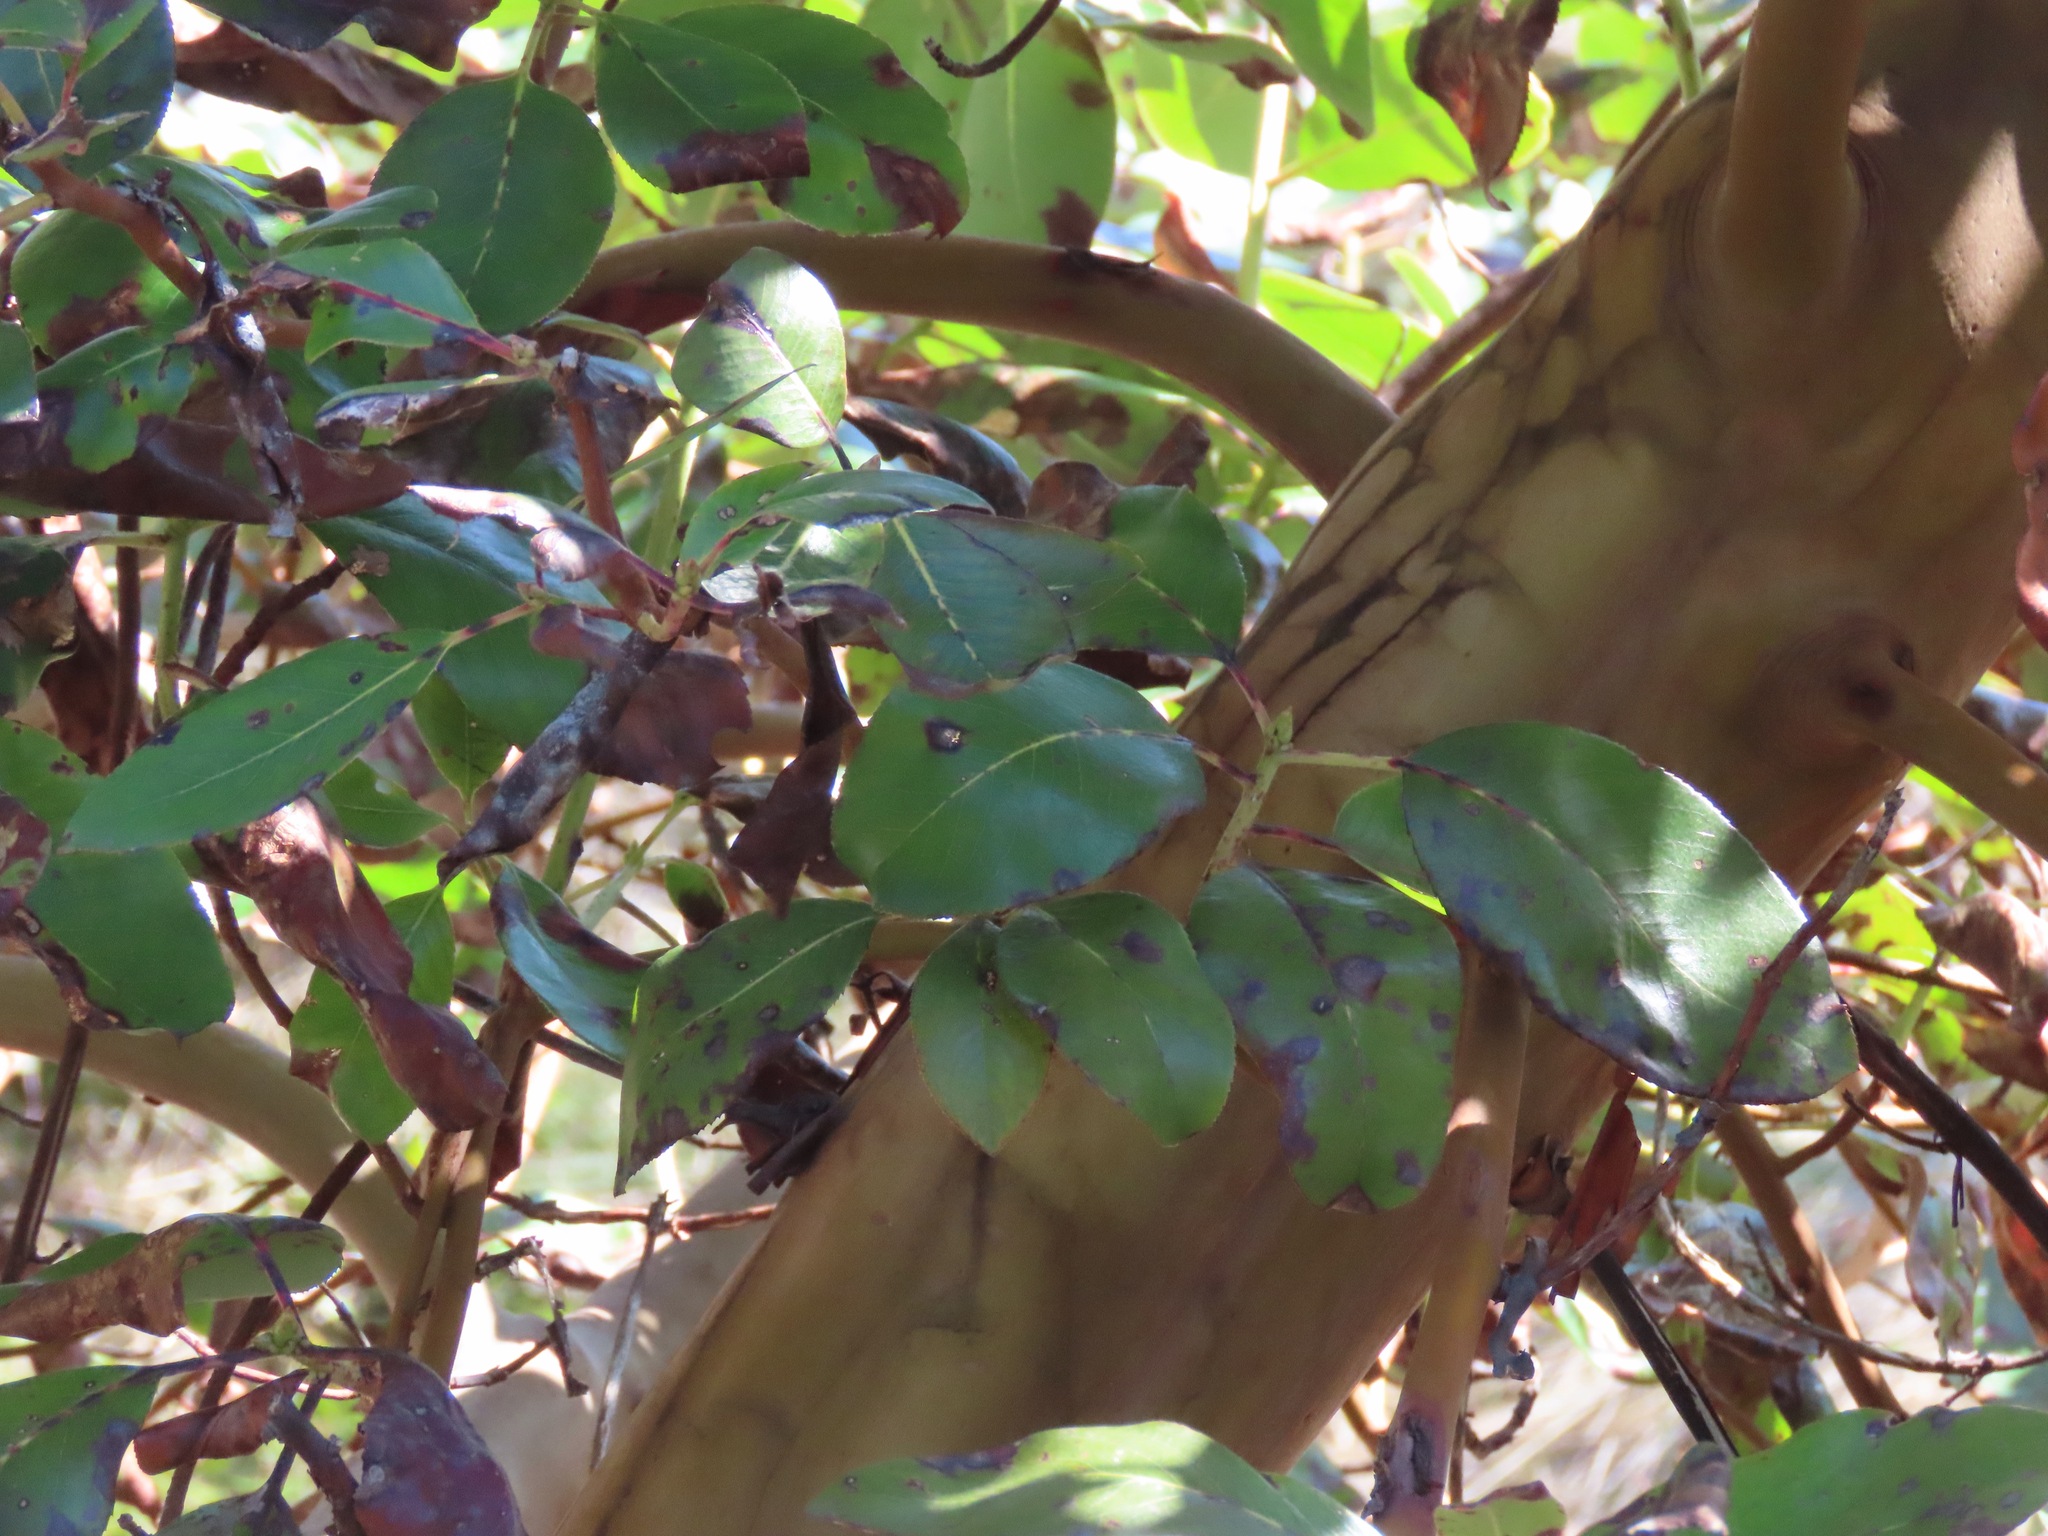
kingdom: Plantae
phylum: Tracheophyta
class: Magnoliopsida
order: Ericales
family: Ericaceae
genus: Arbutus
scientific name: Arbutus menziesii
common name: Pacific madrone
